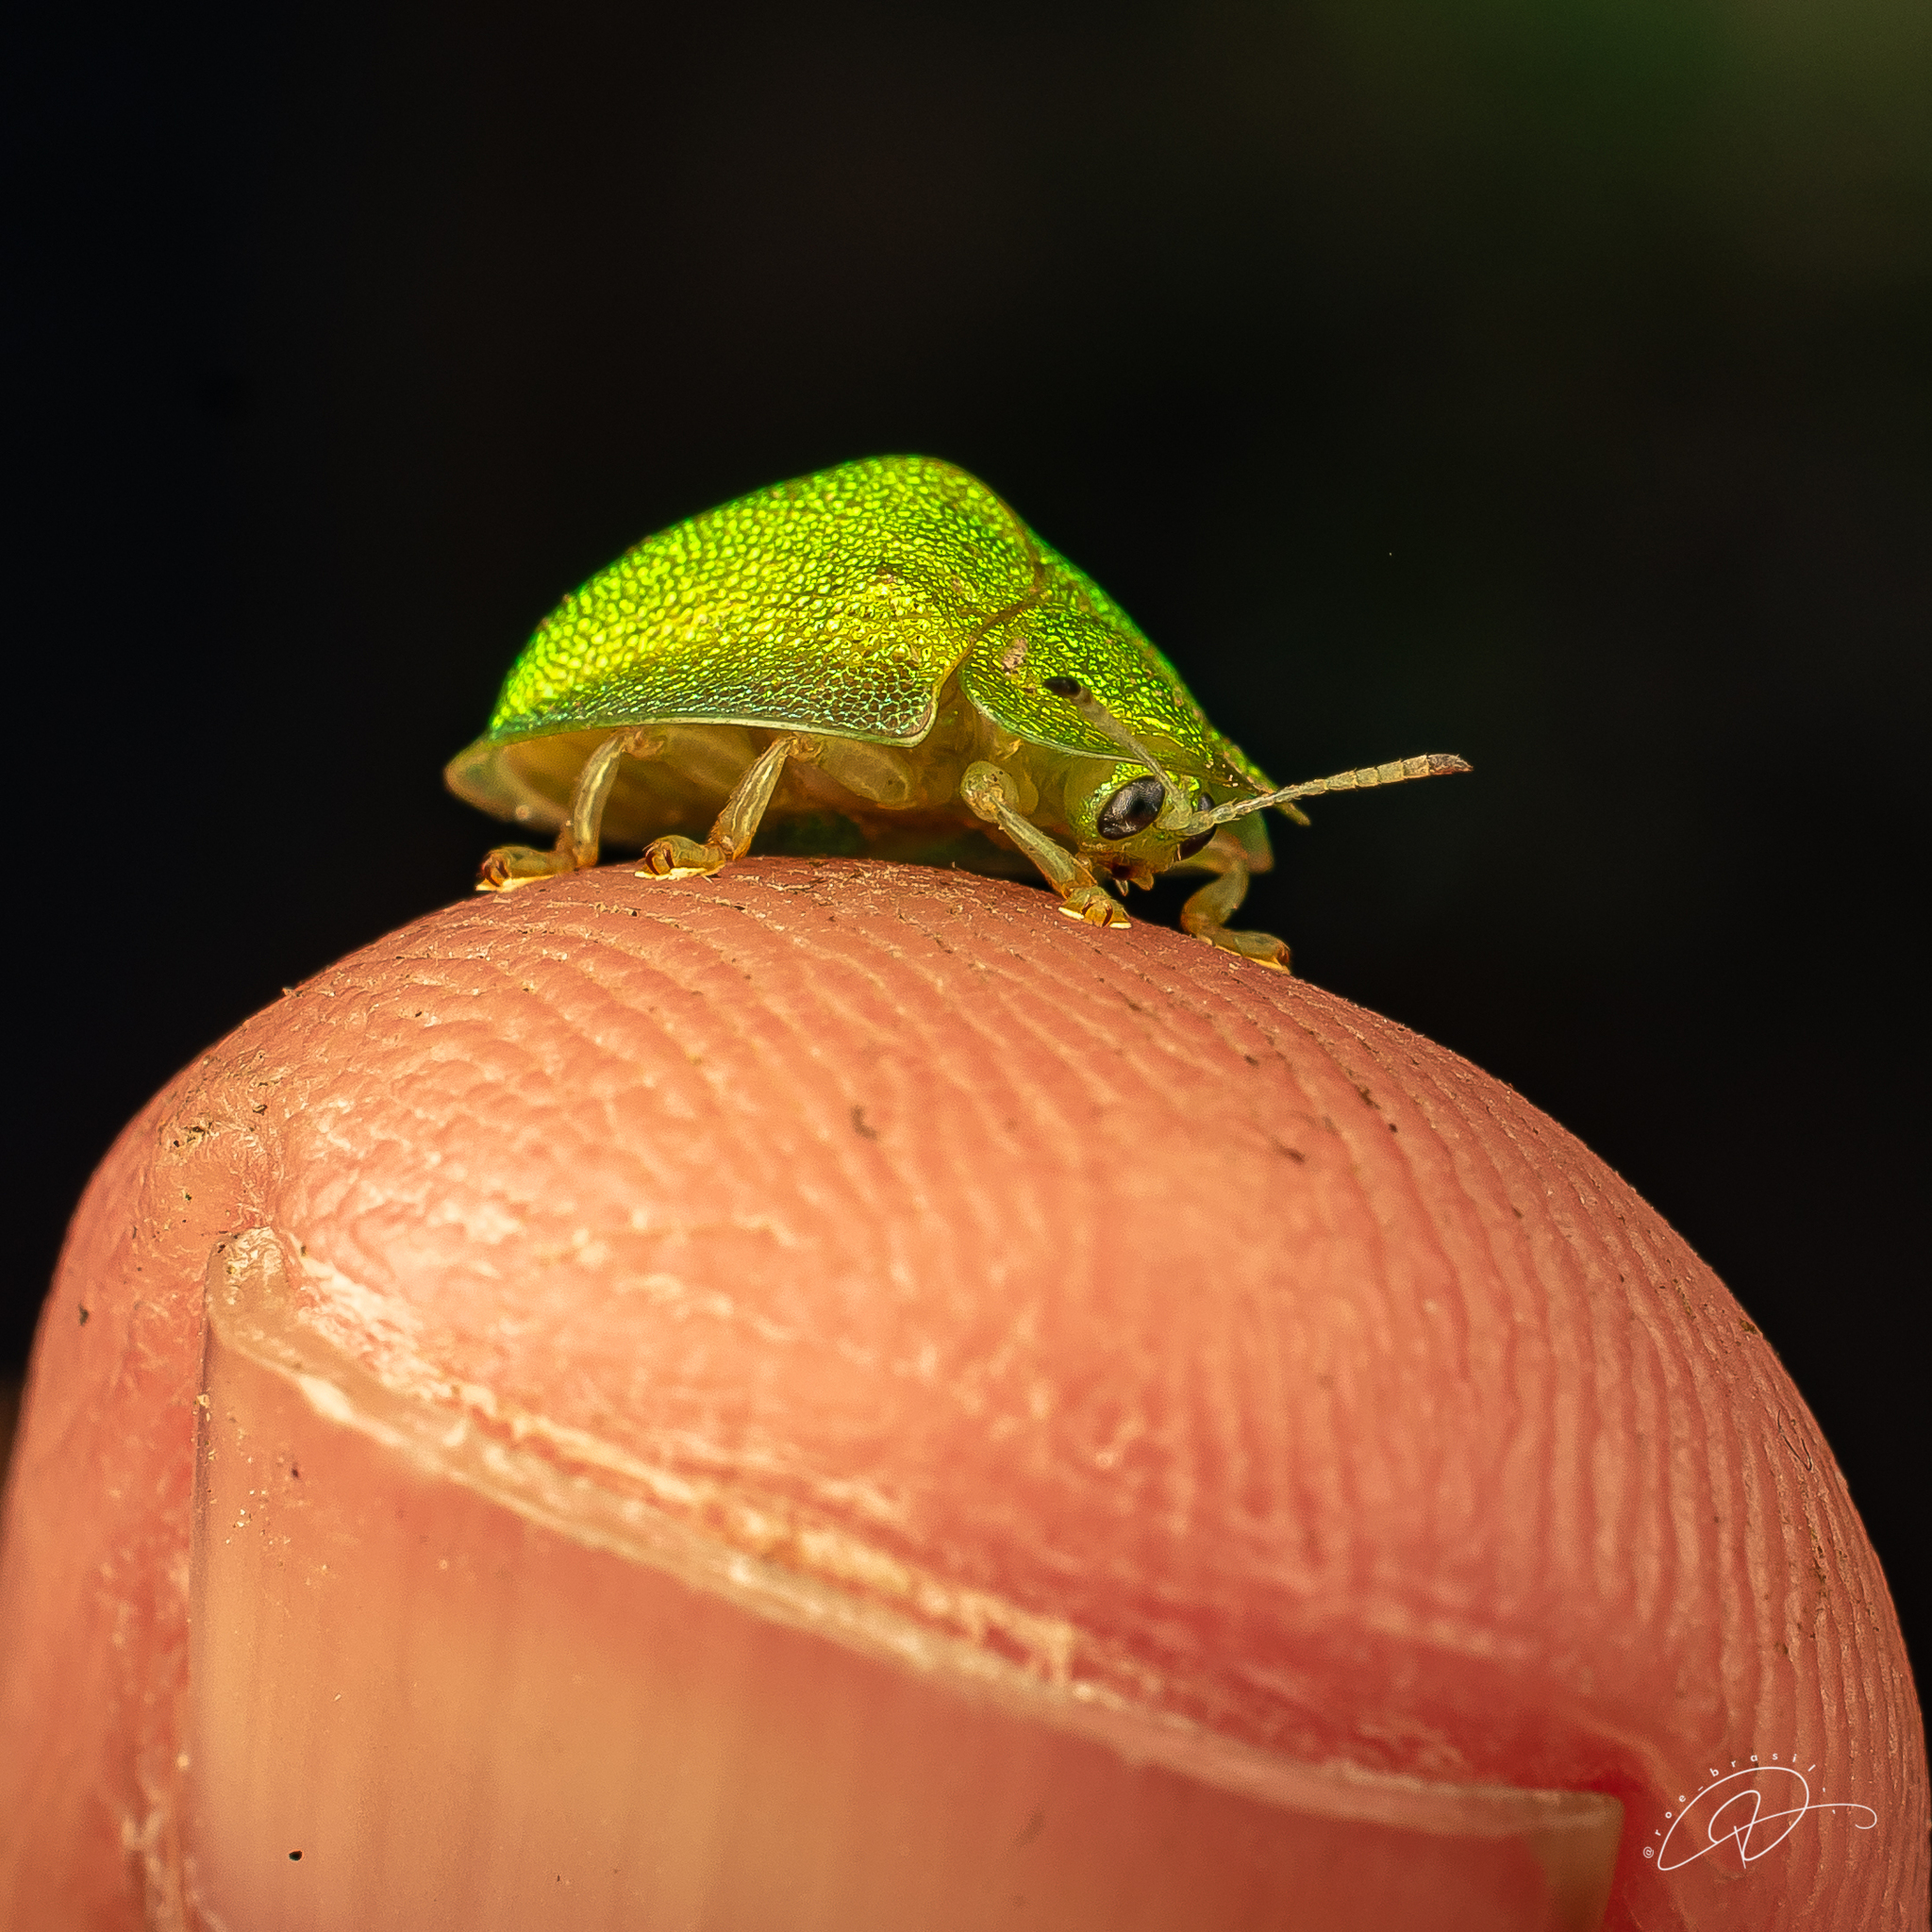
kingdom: Animalia
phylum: Arthropoda
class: Insecta
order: Coleoptera
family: Chrysomelidae
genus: Plagiometriona
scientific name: Plagiometriona punctatissima
